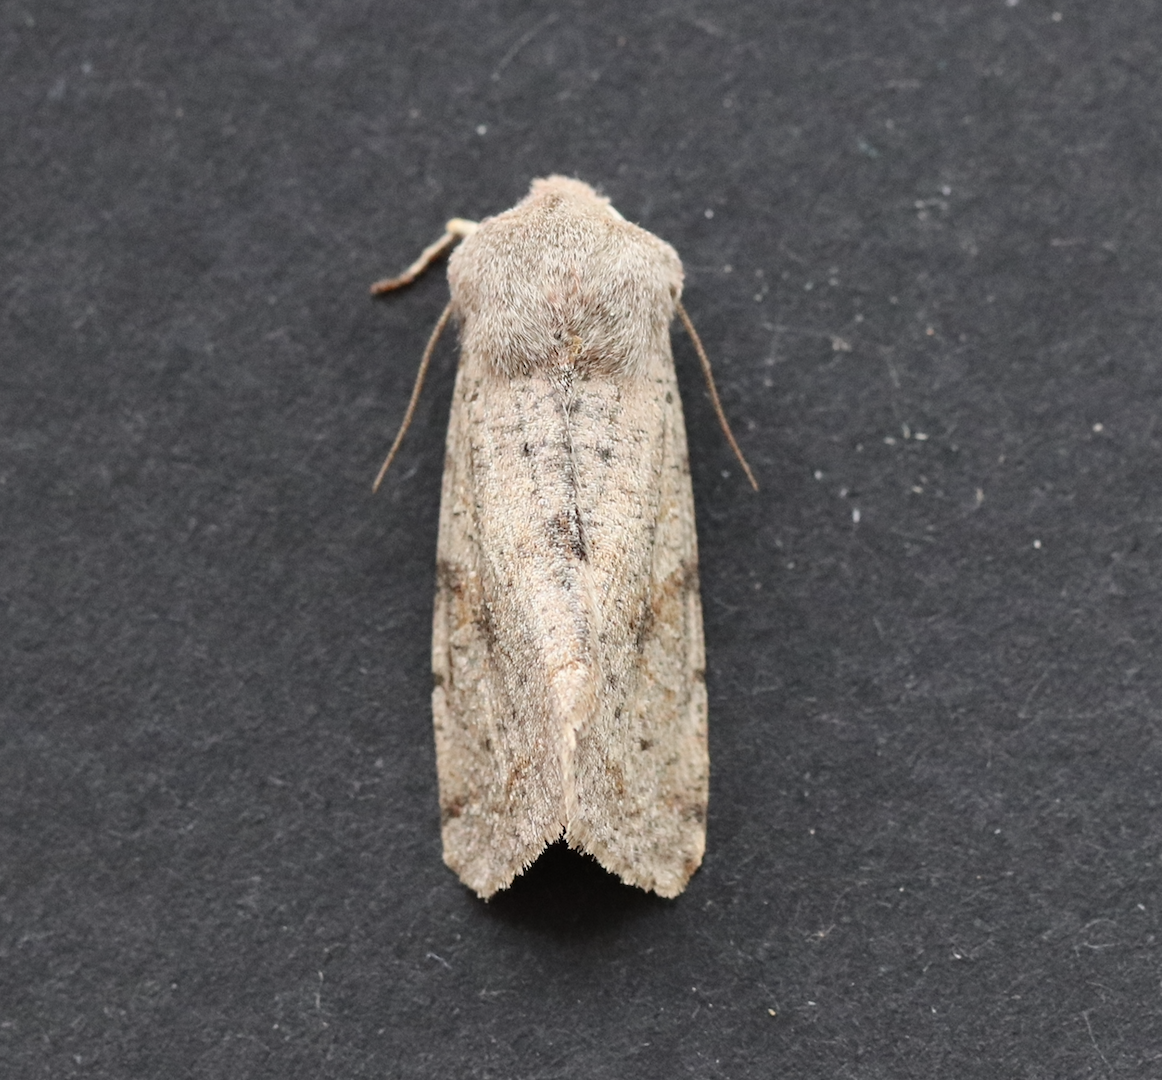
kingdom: Animalia
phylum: Arthropoda
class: Insecta
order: Lepidoptera
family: Noctuidae
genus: Orthosia
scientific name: Orthosia incerta
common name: Clouded drab
